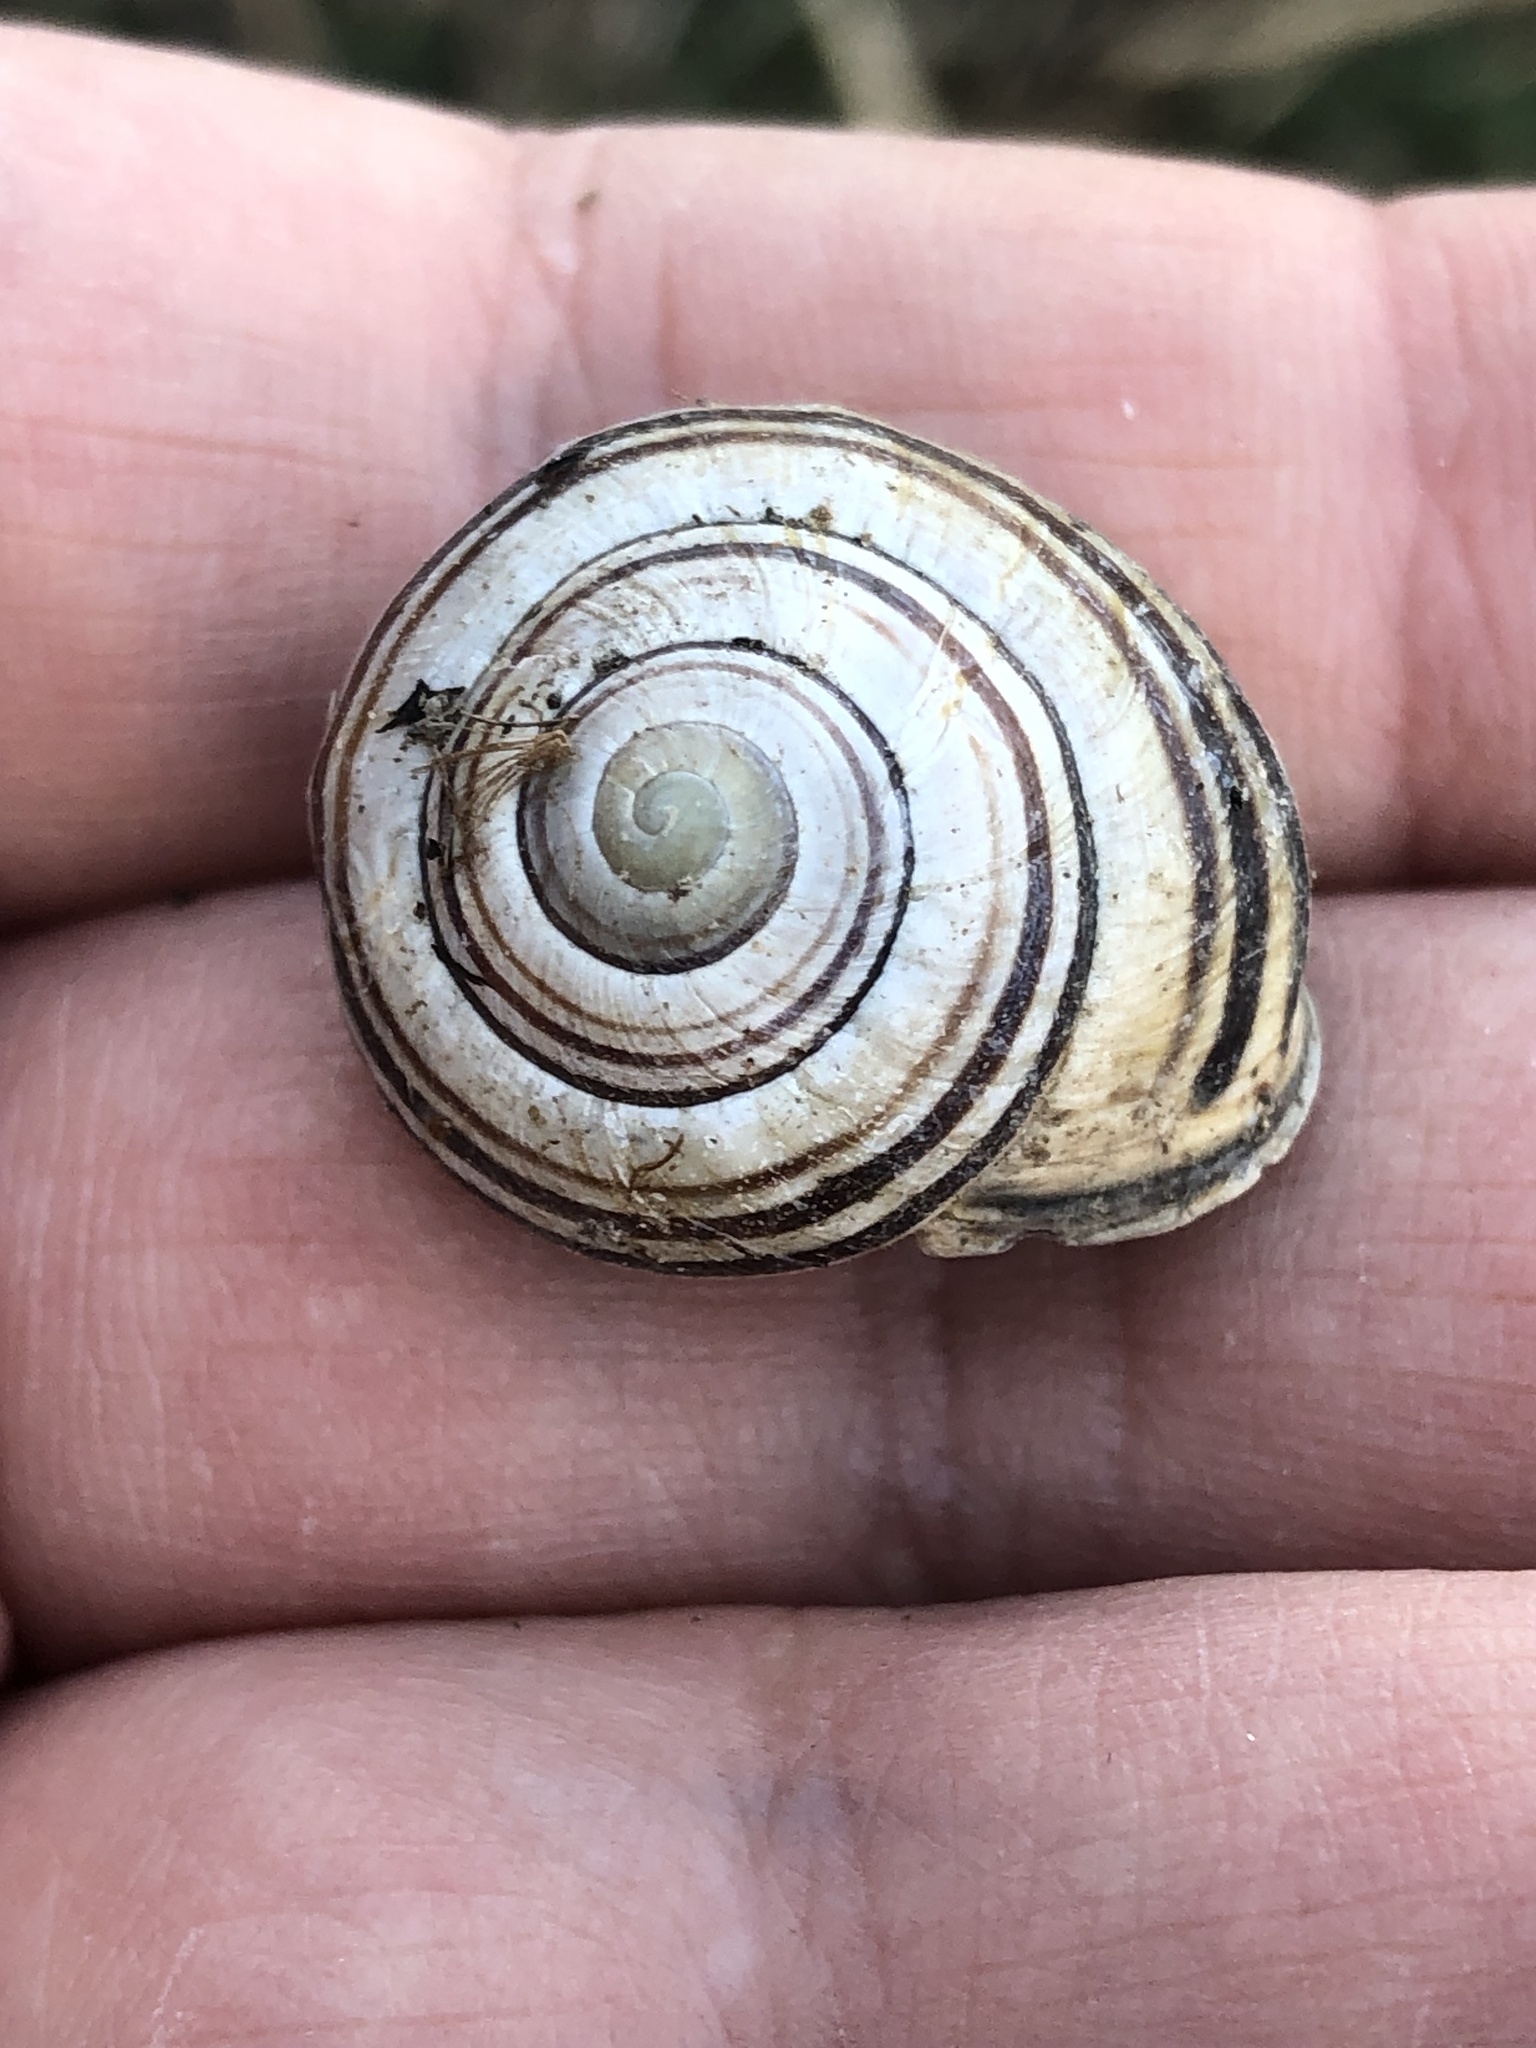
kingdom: Animalia
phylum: Mollusca
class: Gastropoda
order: Stylommatophora
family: Helicidae
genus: Cepaea
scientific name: Cepaea nemoralis
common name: Grovesnail
